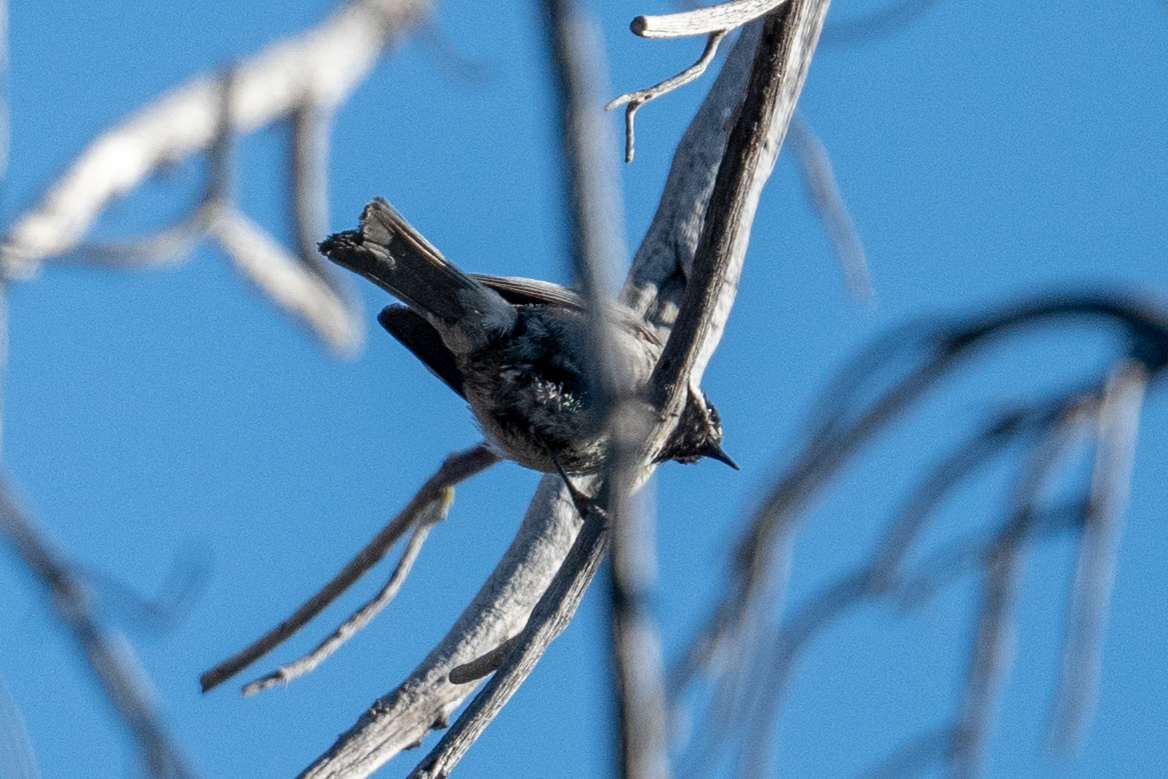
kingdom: Animalia
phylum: Chordata
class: Aves
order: Passeriformes
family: Paridae
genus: Poecile
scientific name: Poecile gambeli
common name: Mountain chickadee
